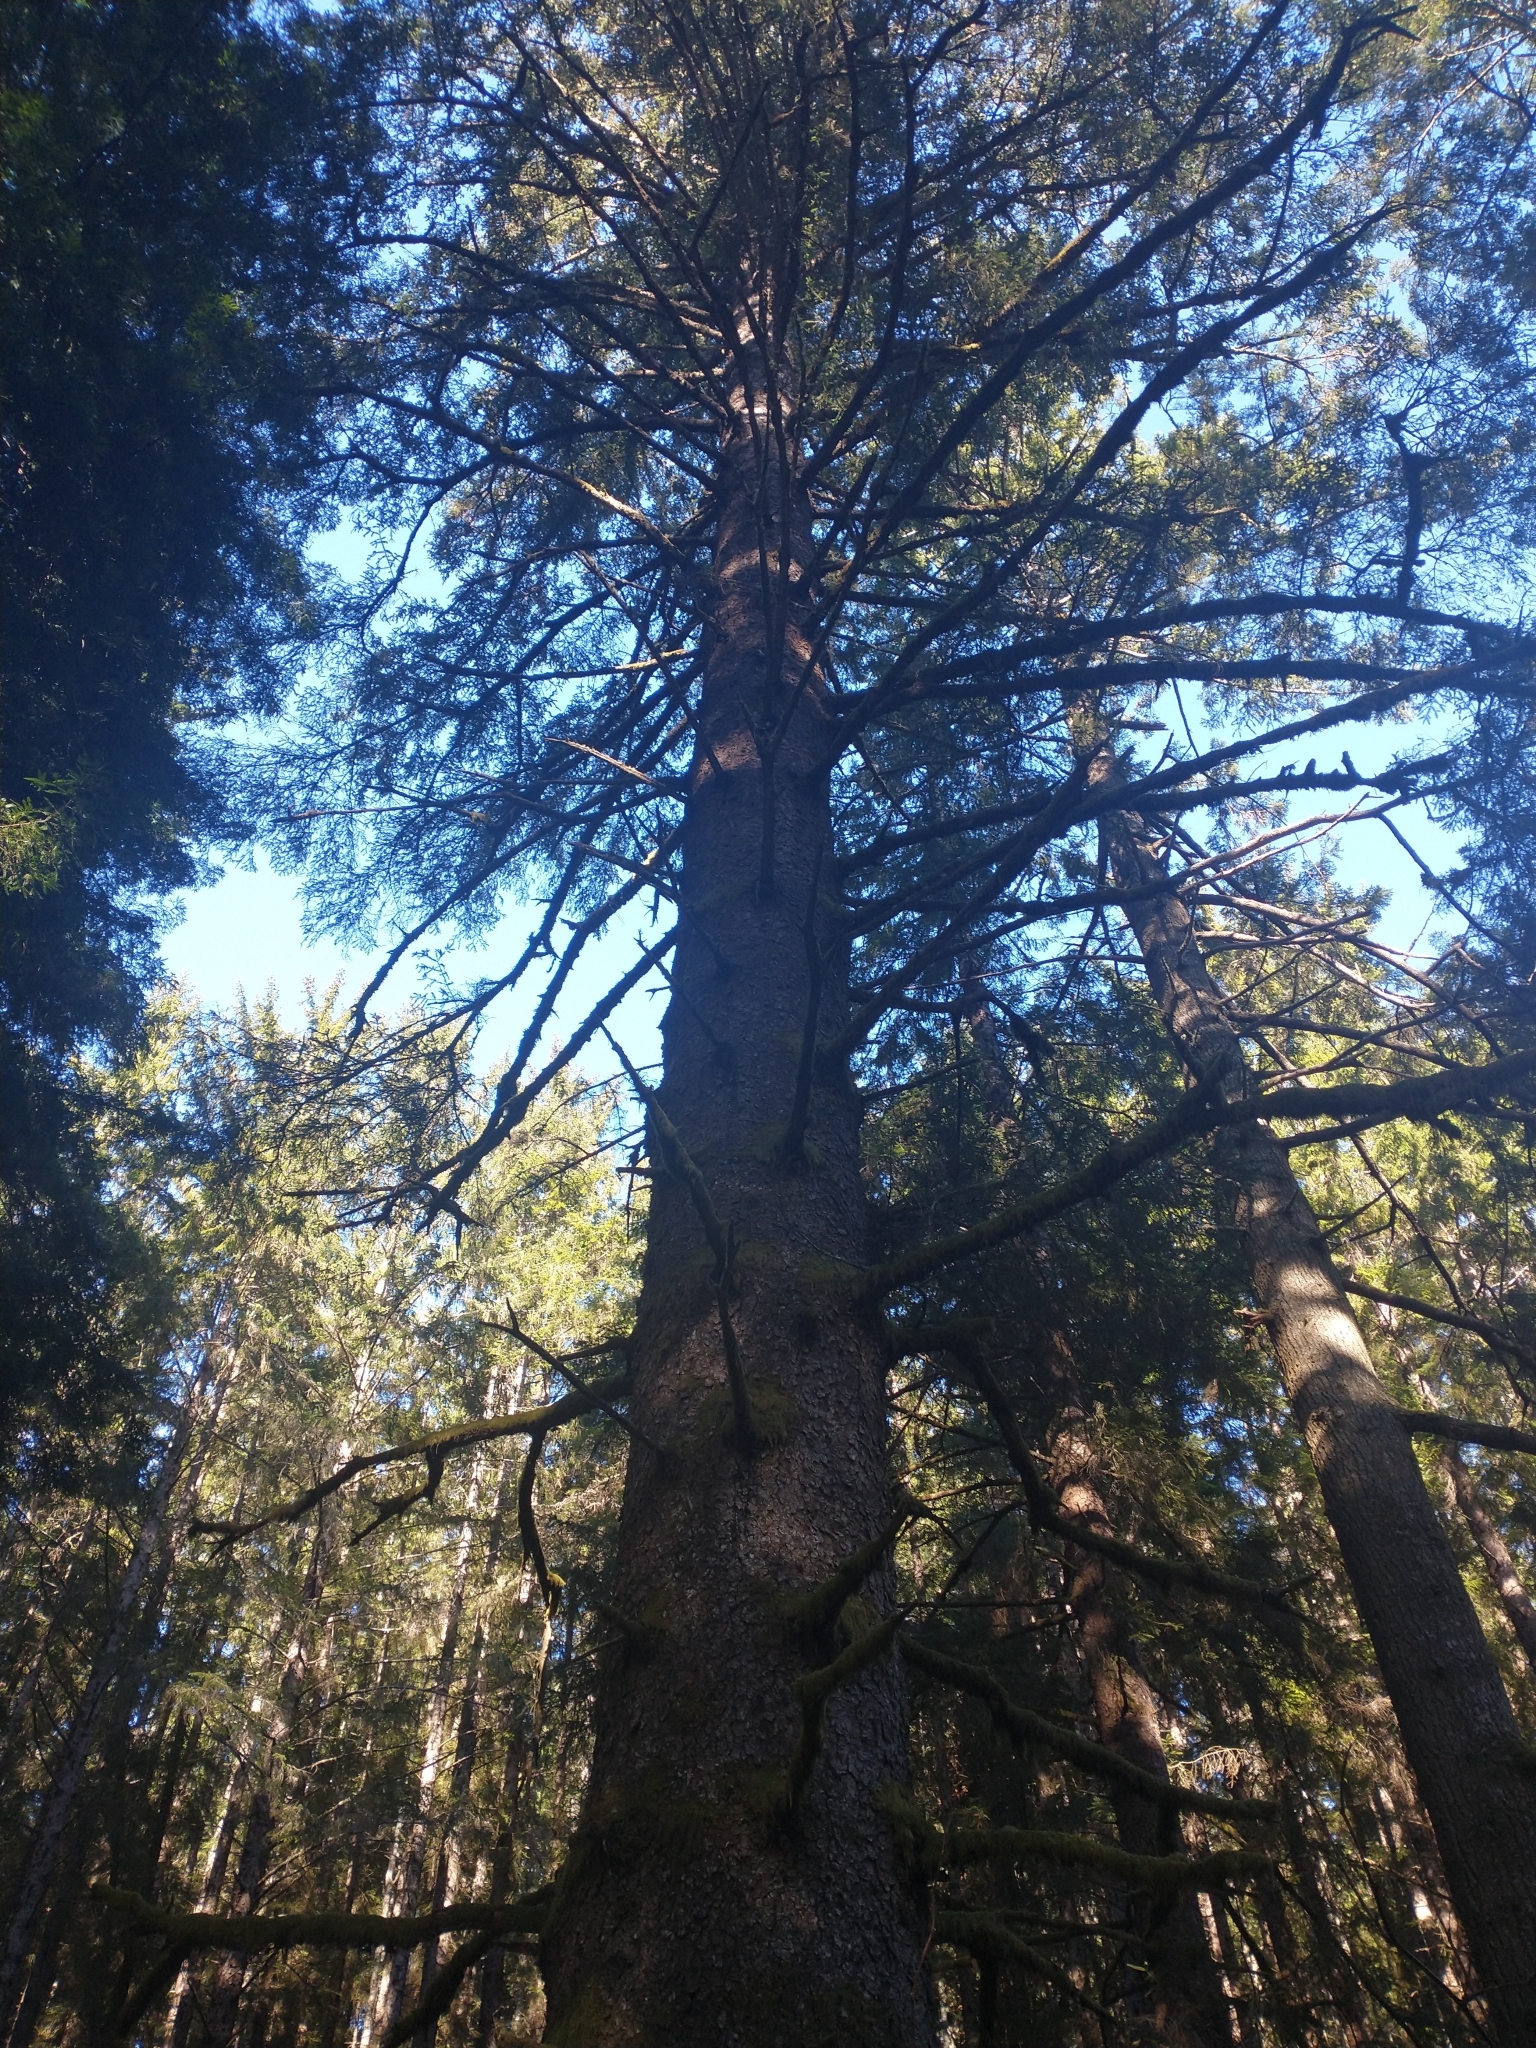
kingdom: Plantae
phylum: Tracheophyta
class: Pinopsida
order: Pinales
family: Pinaceae
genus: Picea
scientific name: Picea sitchensis
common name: Sitka spruce
